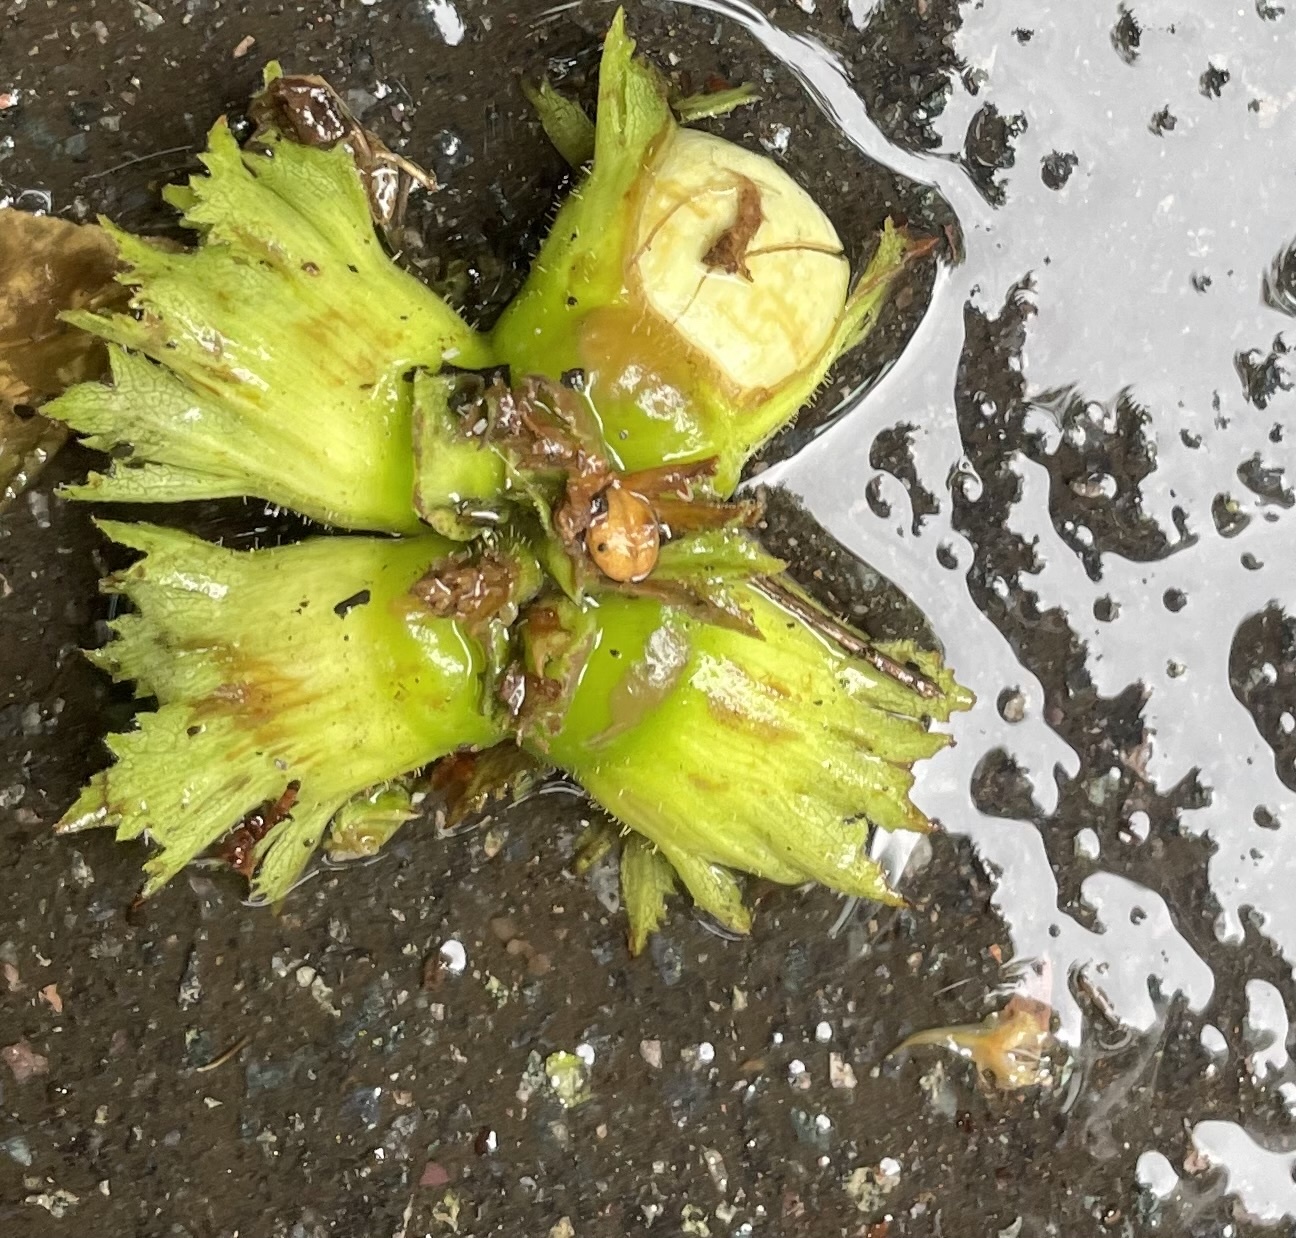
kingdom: Plantae
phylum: Tracheophyta
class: Magnoliopsida
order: Fagales
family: Betulaceae
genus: Corylus
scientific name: Corylus avellana
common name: European hazel
